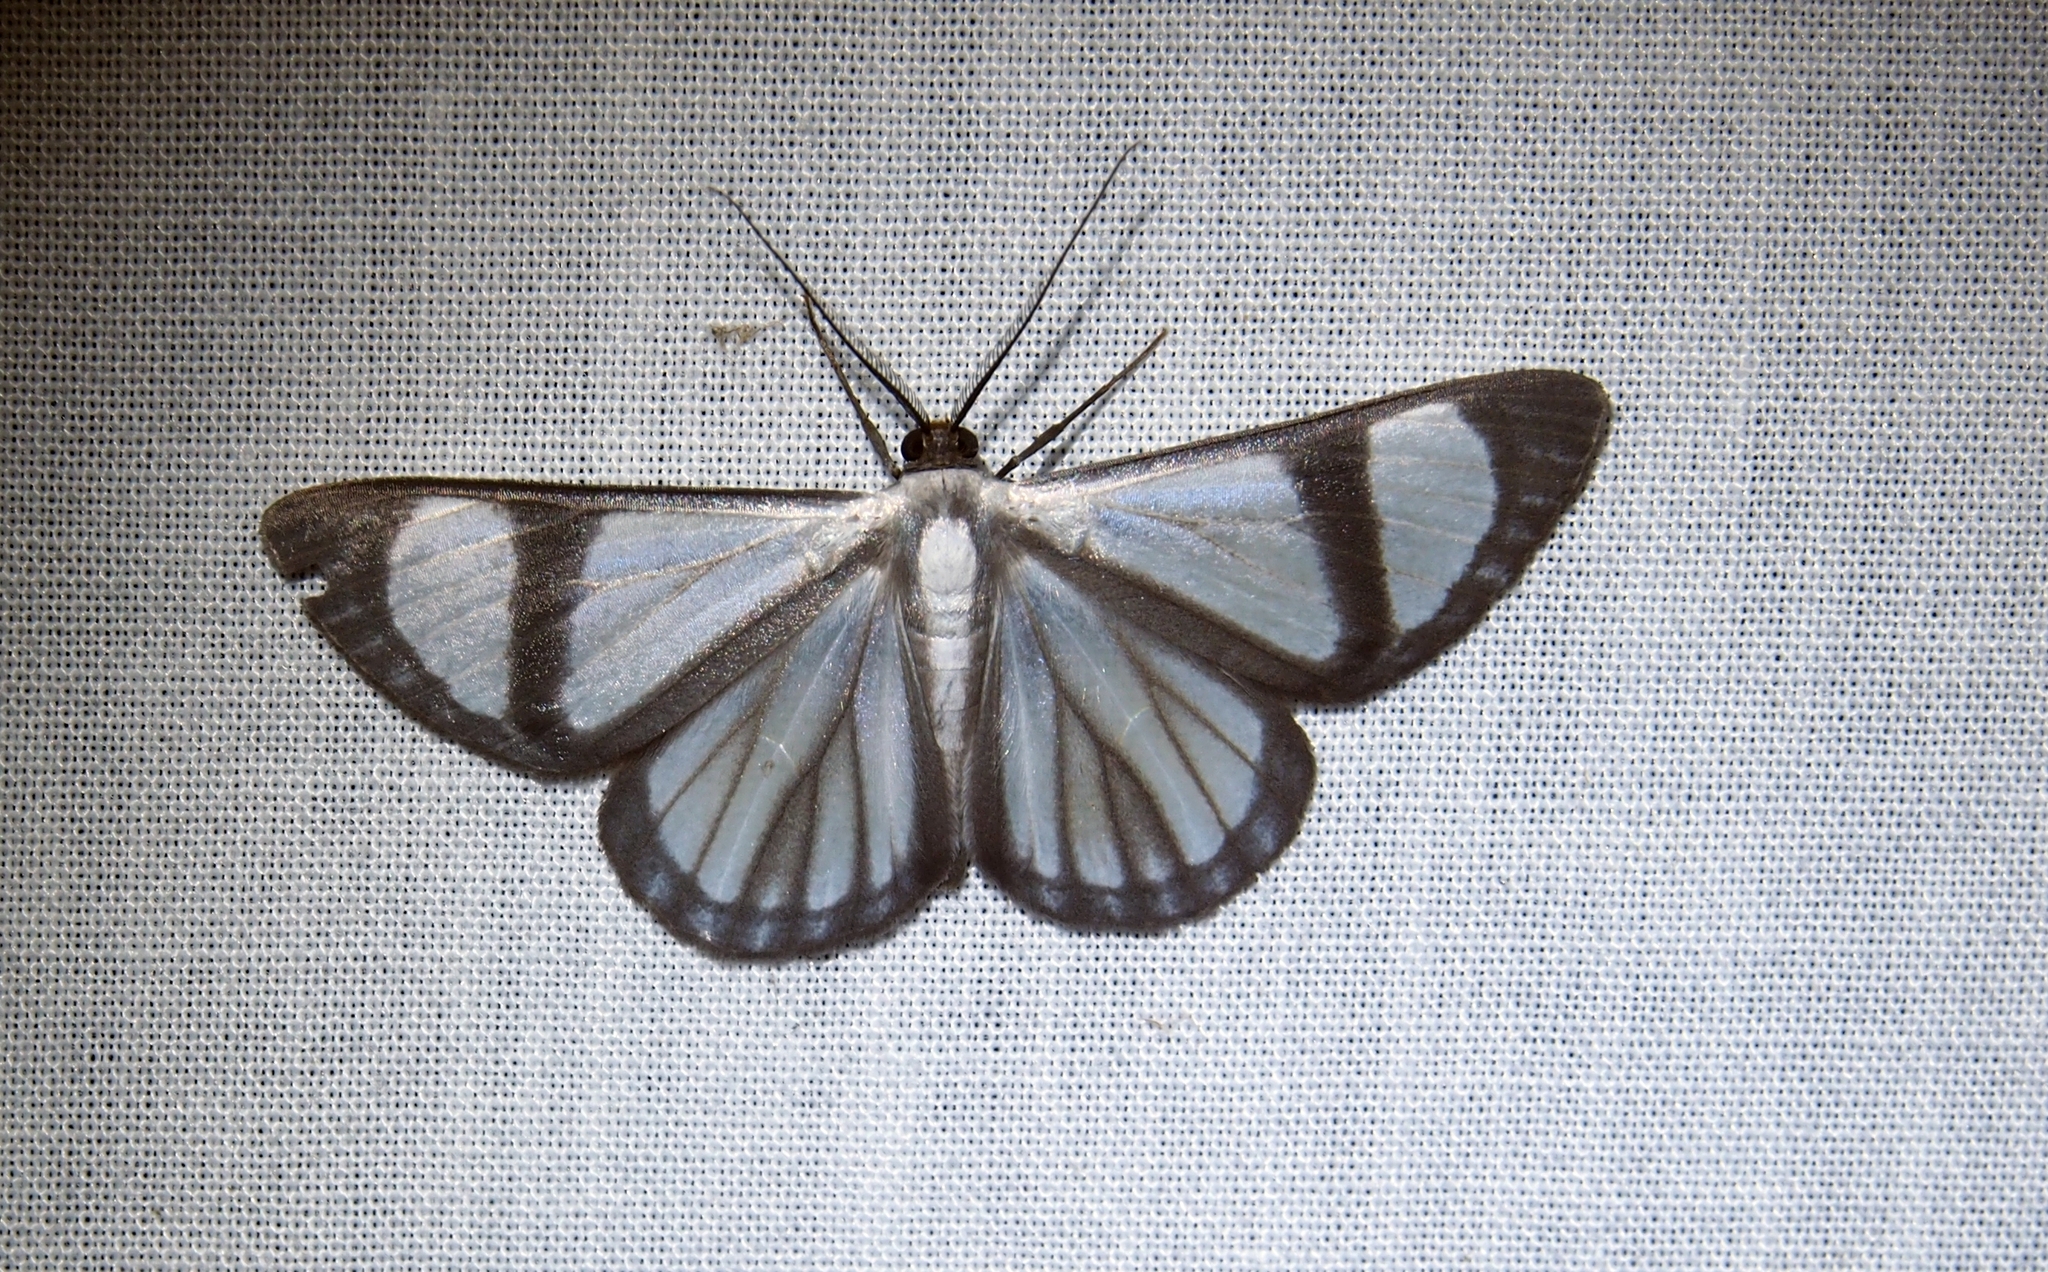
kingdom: Animalia
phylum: Arthropoda
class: Insecta
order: Lepidoptera
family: Geometridae
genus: Perigramma
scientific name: Perigramma vicina
